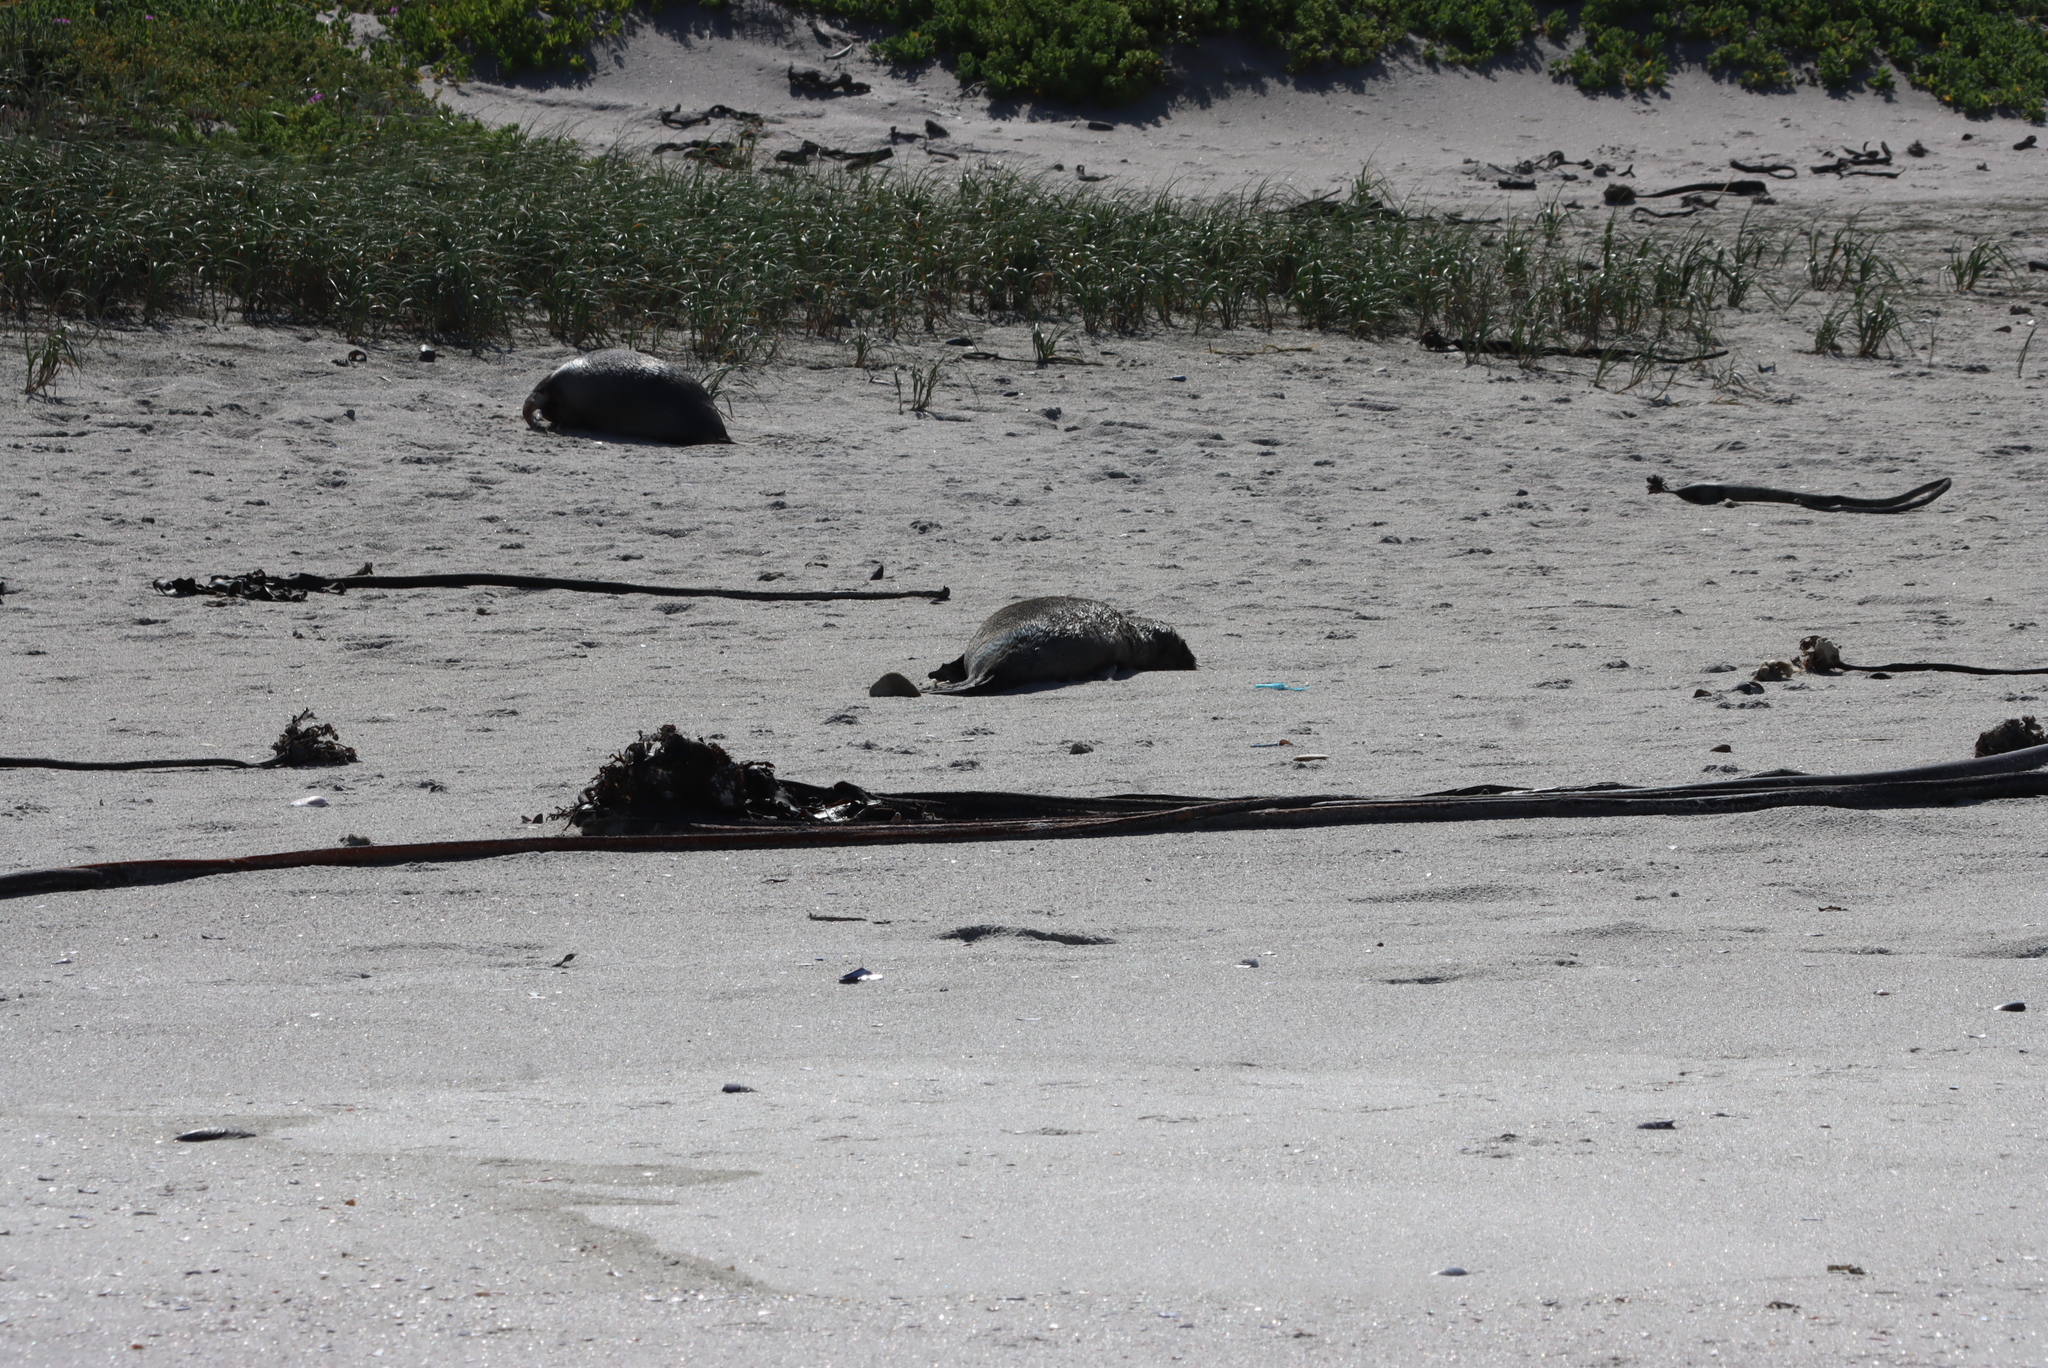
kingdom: Animalia
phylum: Chordata
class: Mammalia
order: Carnivora
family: Otariidae
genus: Arctocephalus
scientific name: Arctocephalus pusillus
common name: Brown fur seal
